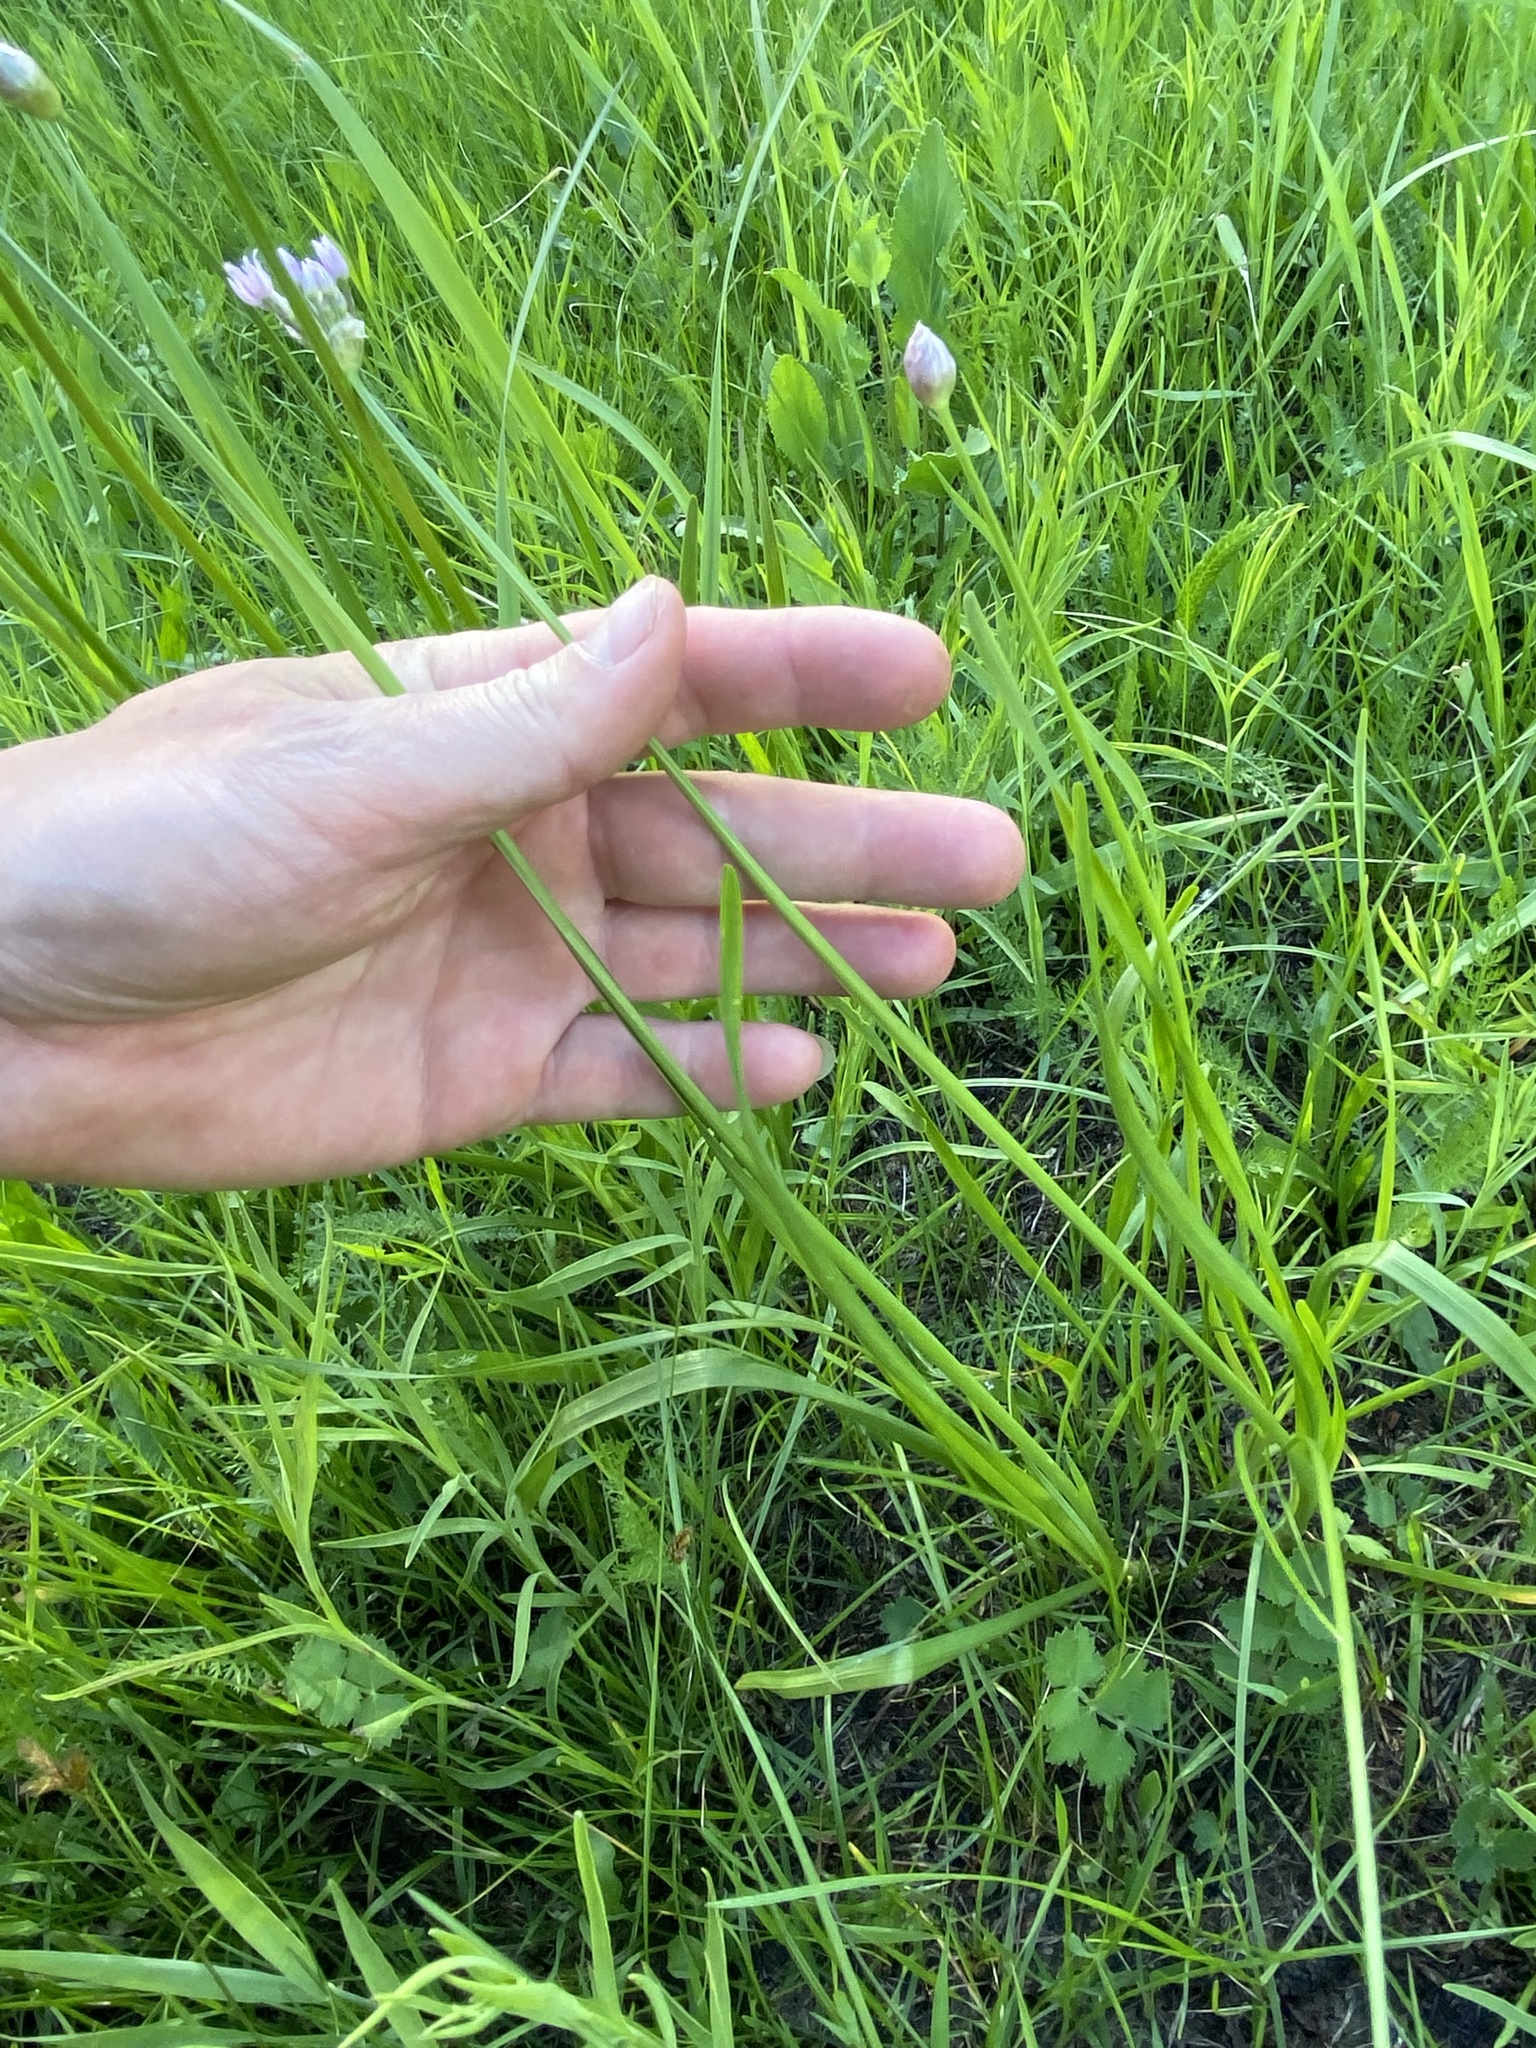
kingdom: Plantae
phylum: Tracheophyta
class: Liliopsida
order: Asparagales
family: Amaryllidaceae
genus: Allium
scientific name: Allium angulosum
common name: Mouse garlic
